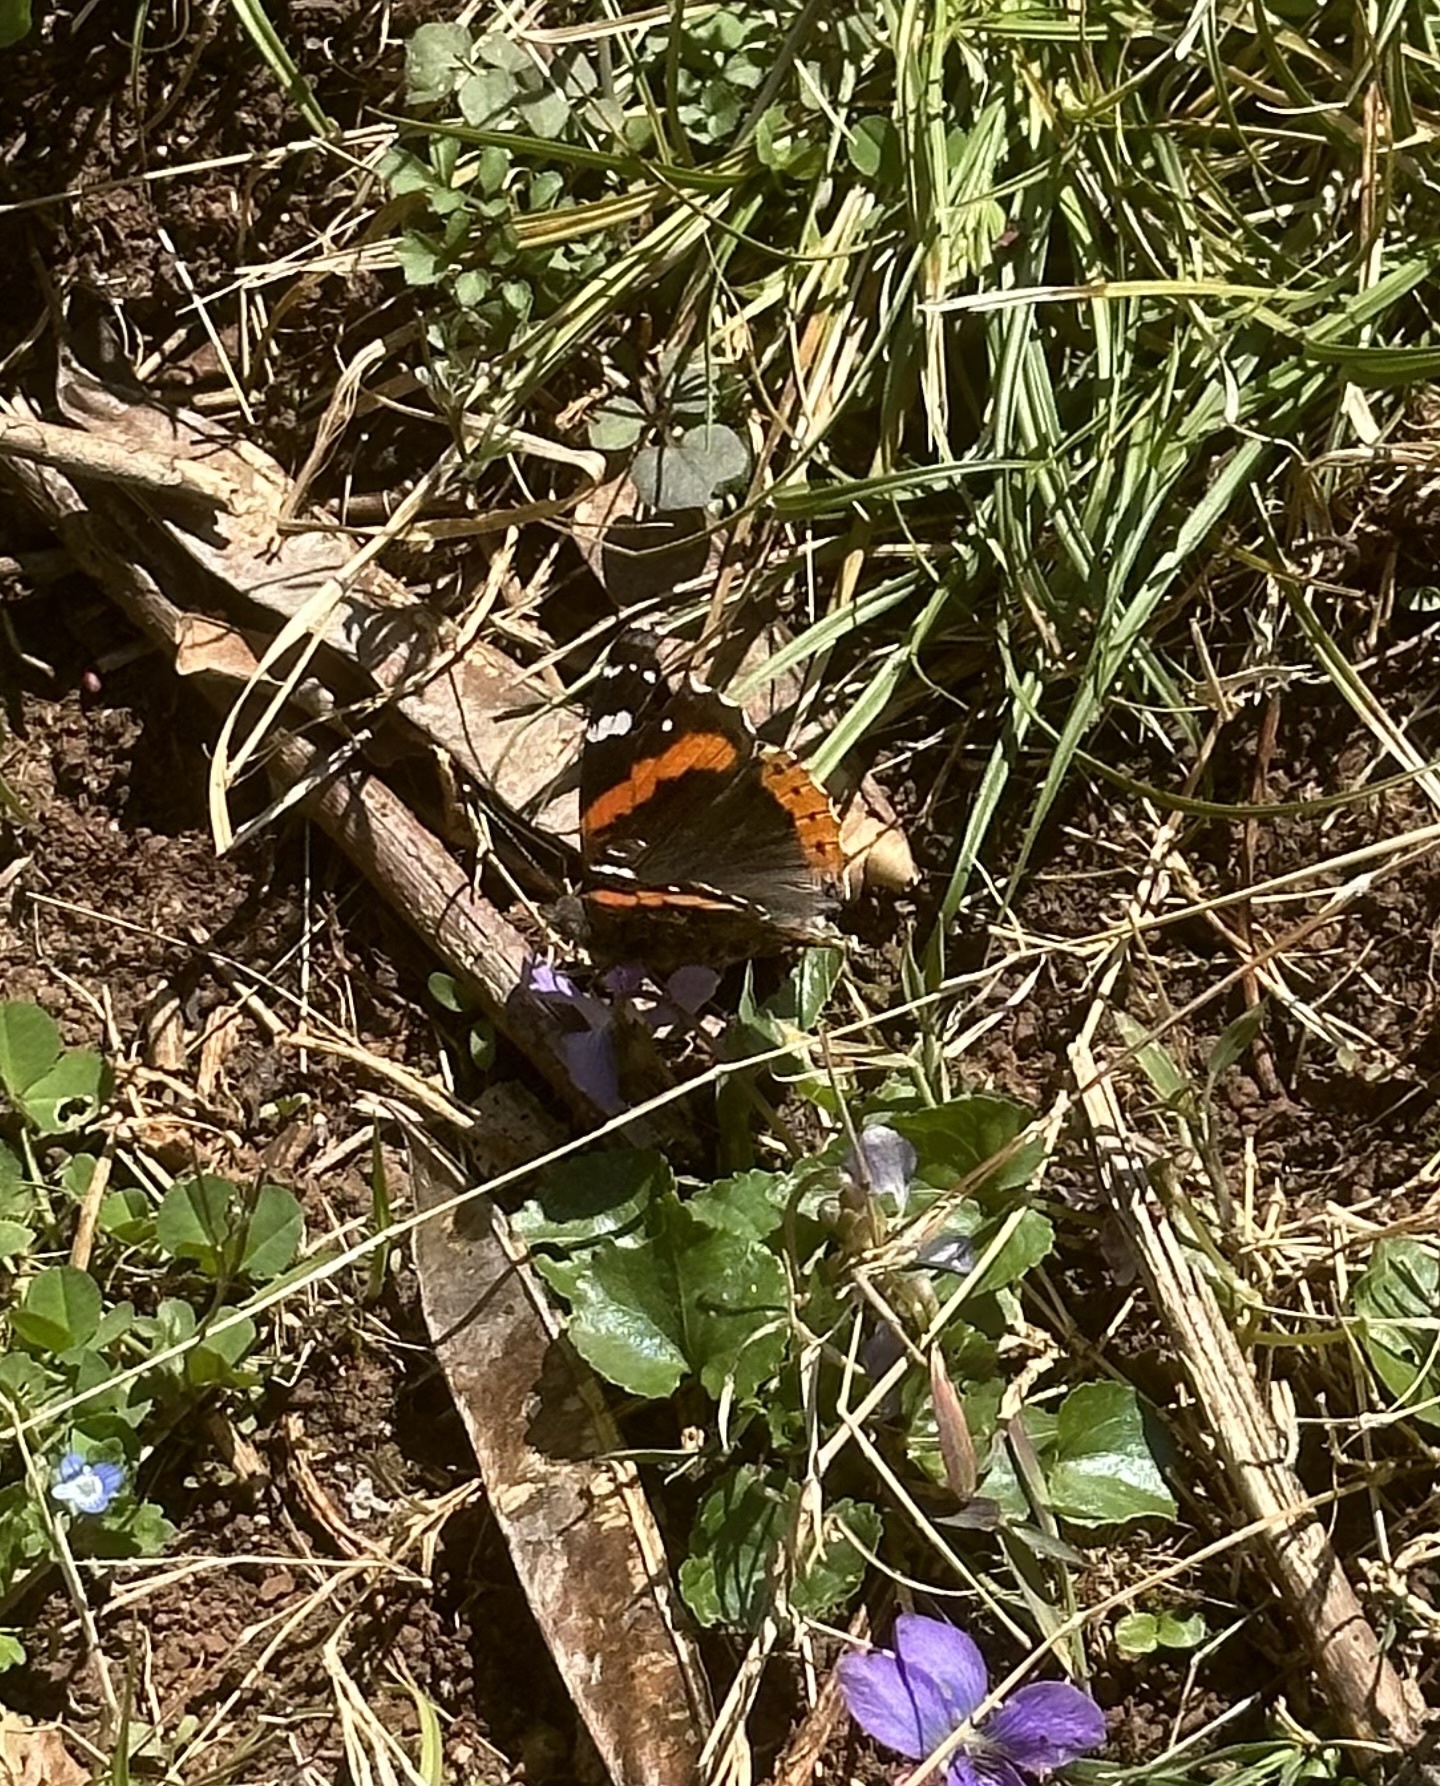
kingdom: Animalia
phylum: Arthropoda
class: Insecta
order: Lepidoptera
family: Nymphalidae
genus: Vanessa
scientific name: Vanessa atalanta
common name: Red admiral
